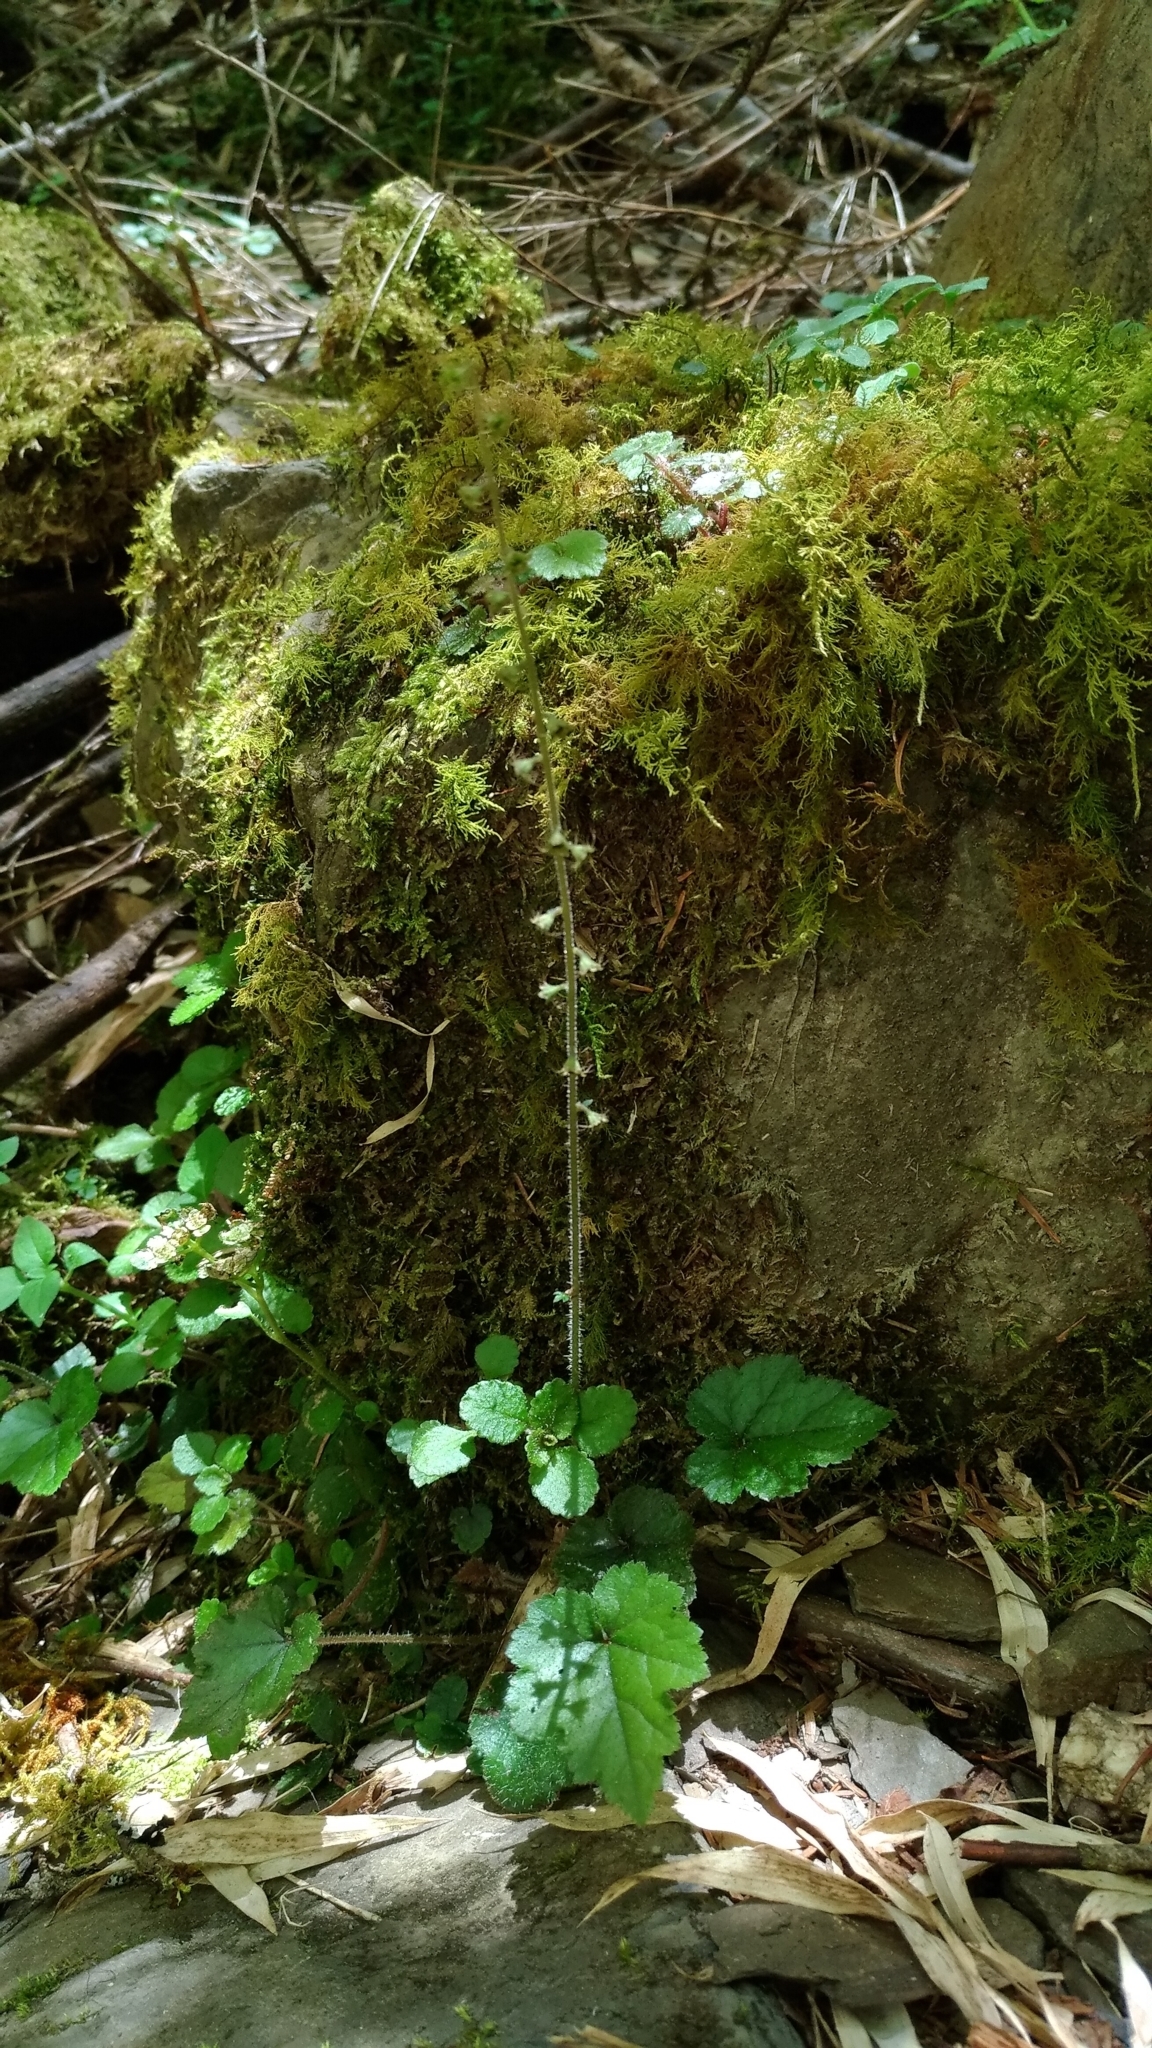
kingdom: Plantae
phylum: Tracheophyta
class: Magnoliopsida
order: Saxifragales
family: Saxifragaceae
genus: Asimitellaria
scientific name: Asimitellaria formosana
